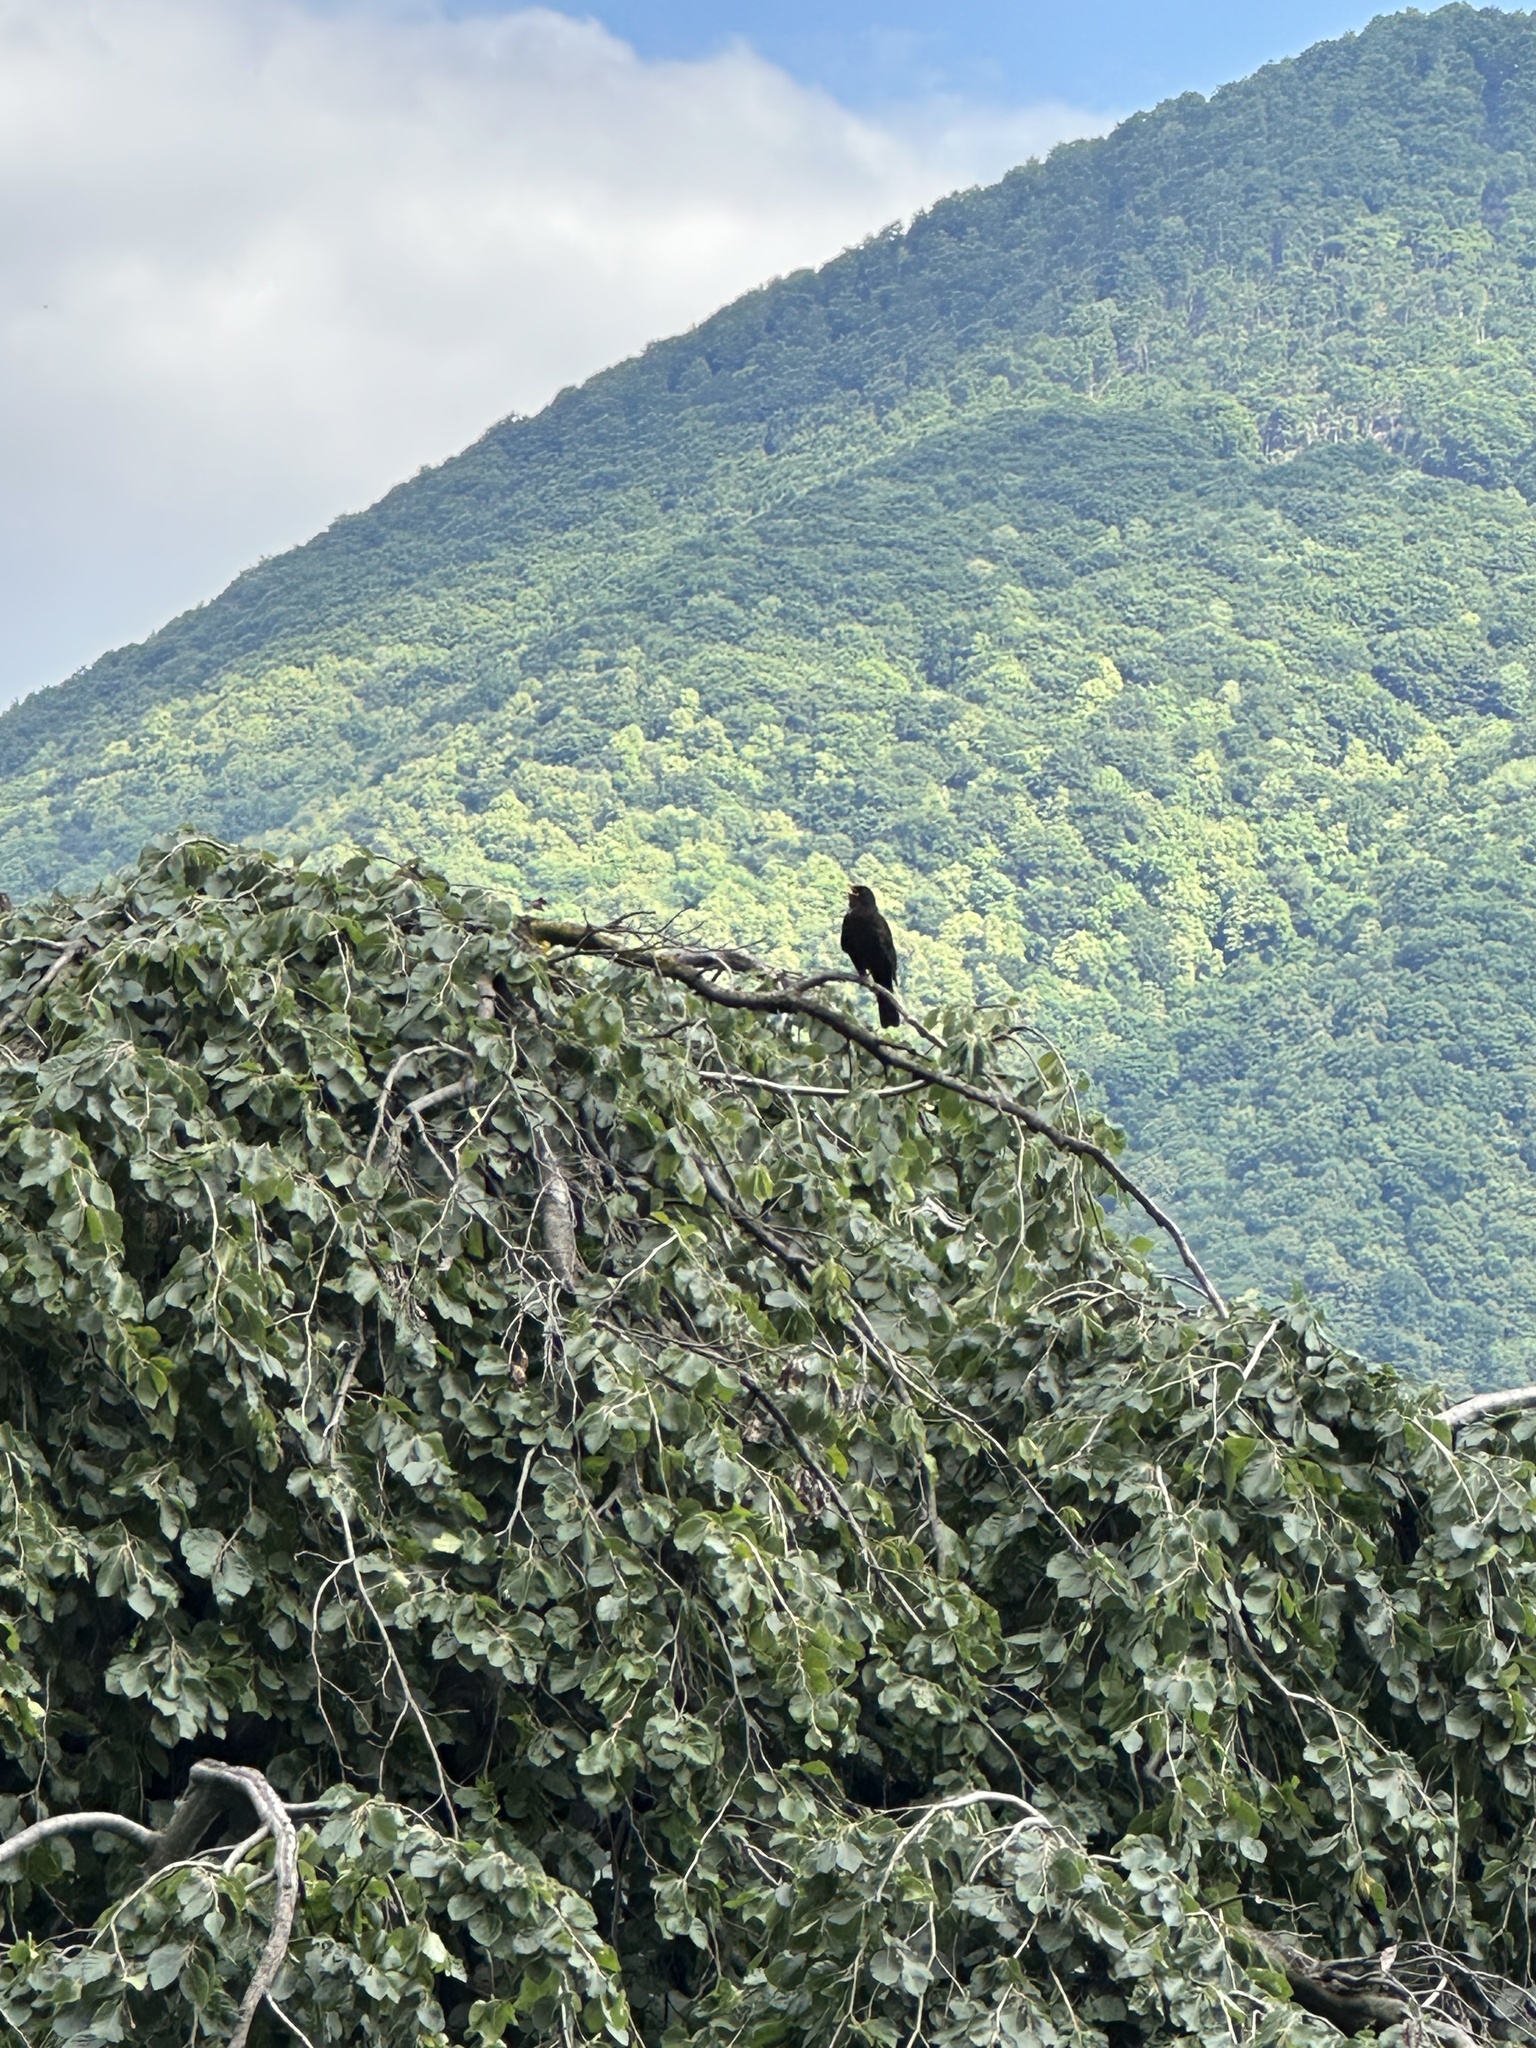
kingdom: Animalia
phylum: Chordata
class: Aves
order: Passeriformes
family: Turdidae
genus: Turdus
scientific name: Turdus merula
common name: Common blackbird
